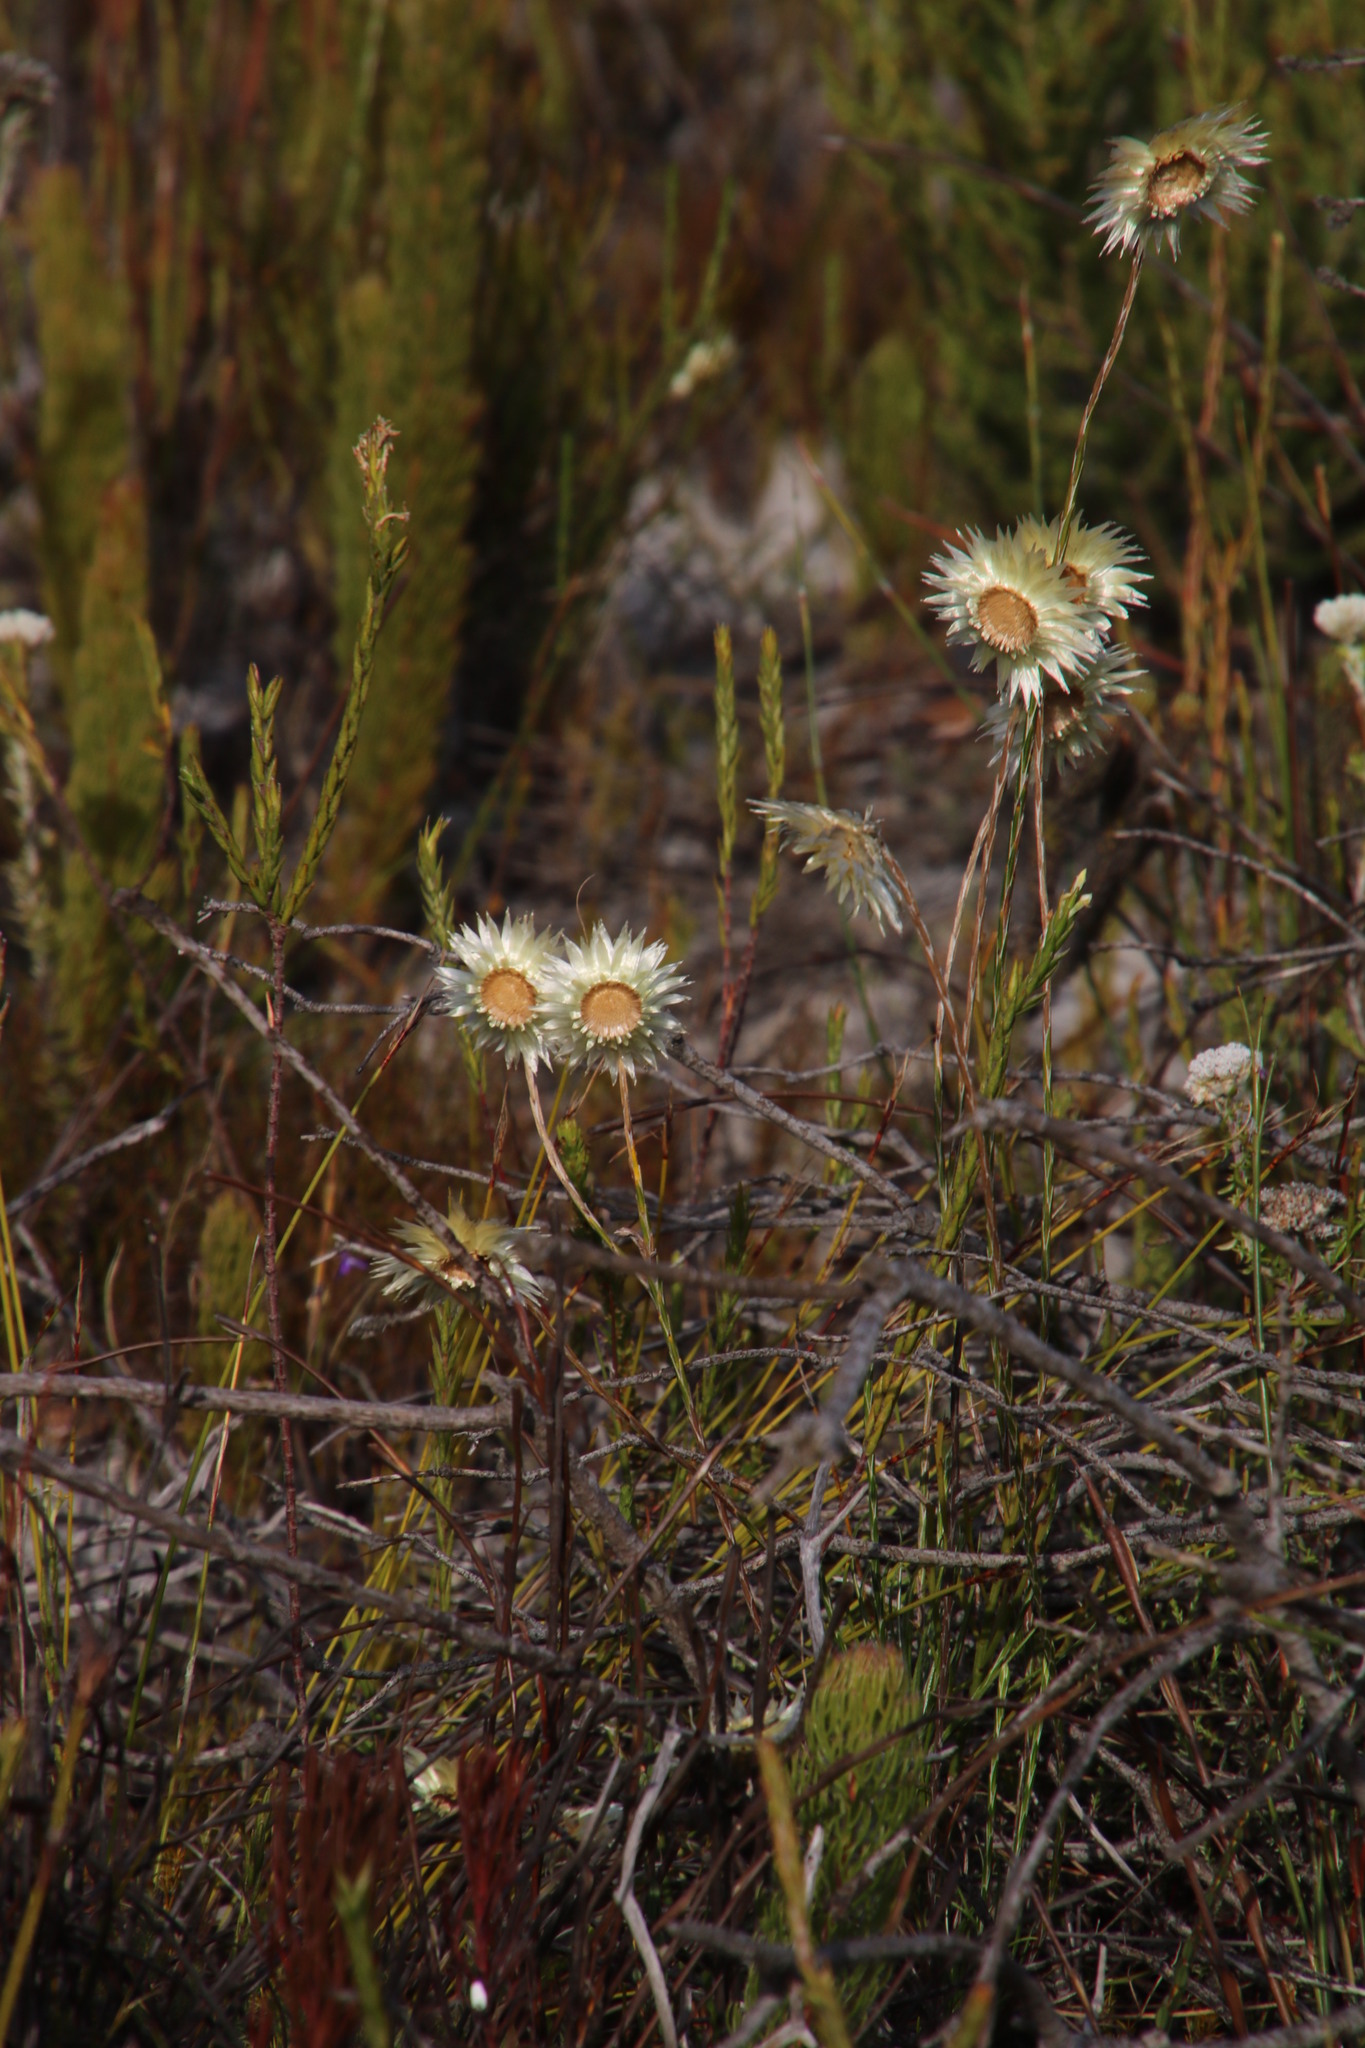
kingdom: Plantae
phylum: Tracheophyta
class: Magnoliopsida
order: Asterales
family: Asteraceae
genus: Edmondia
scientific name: Edmondia sesamoides
